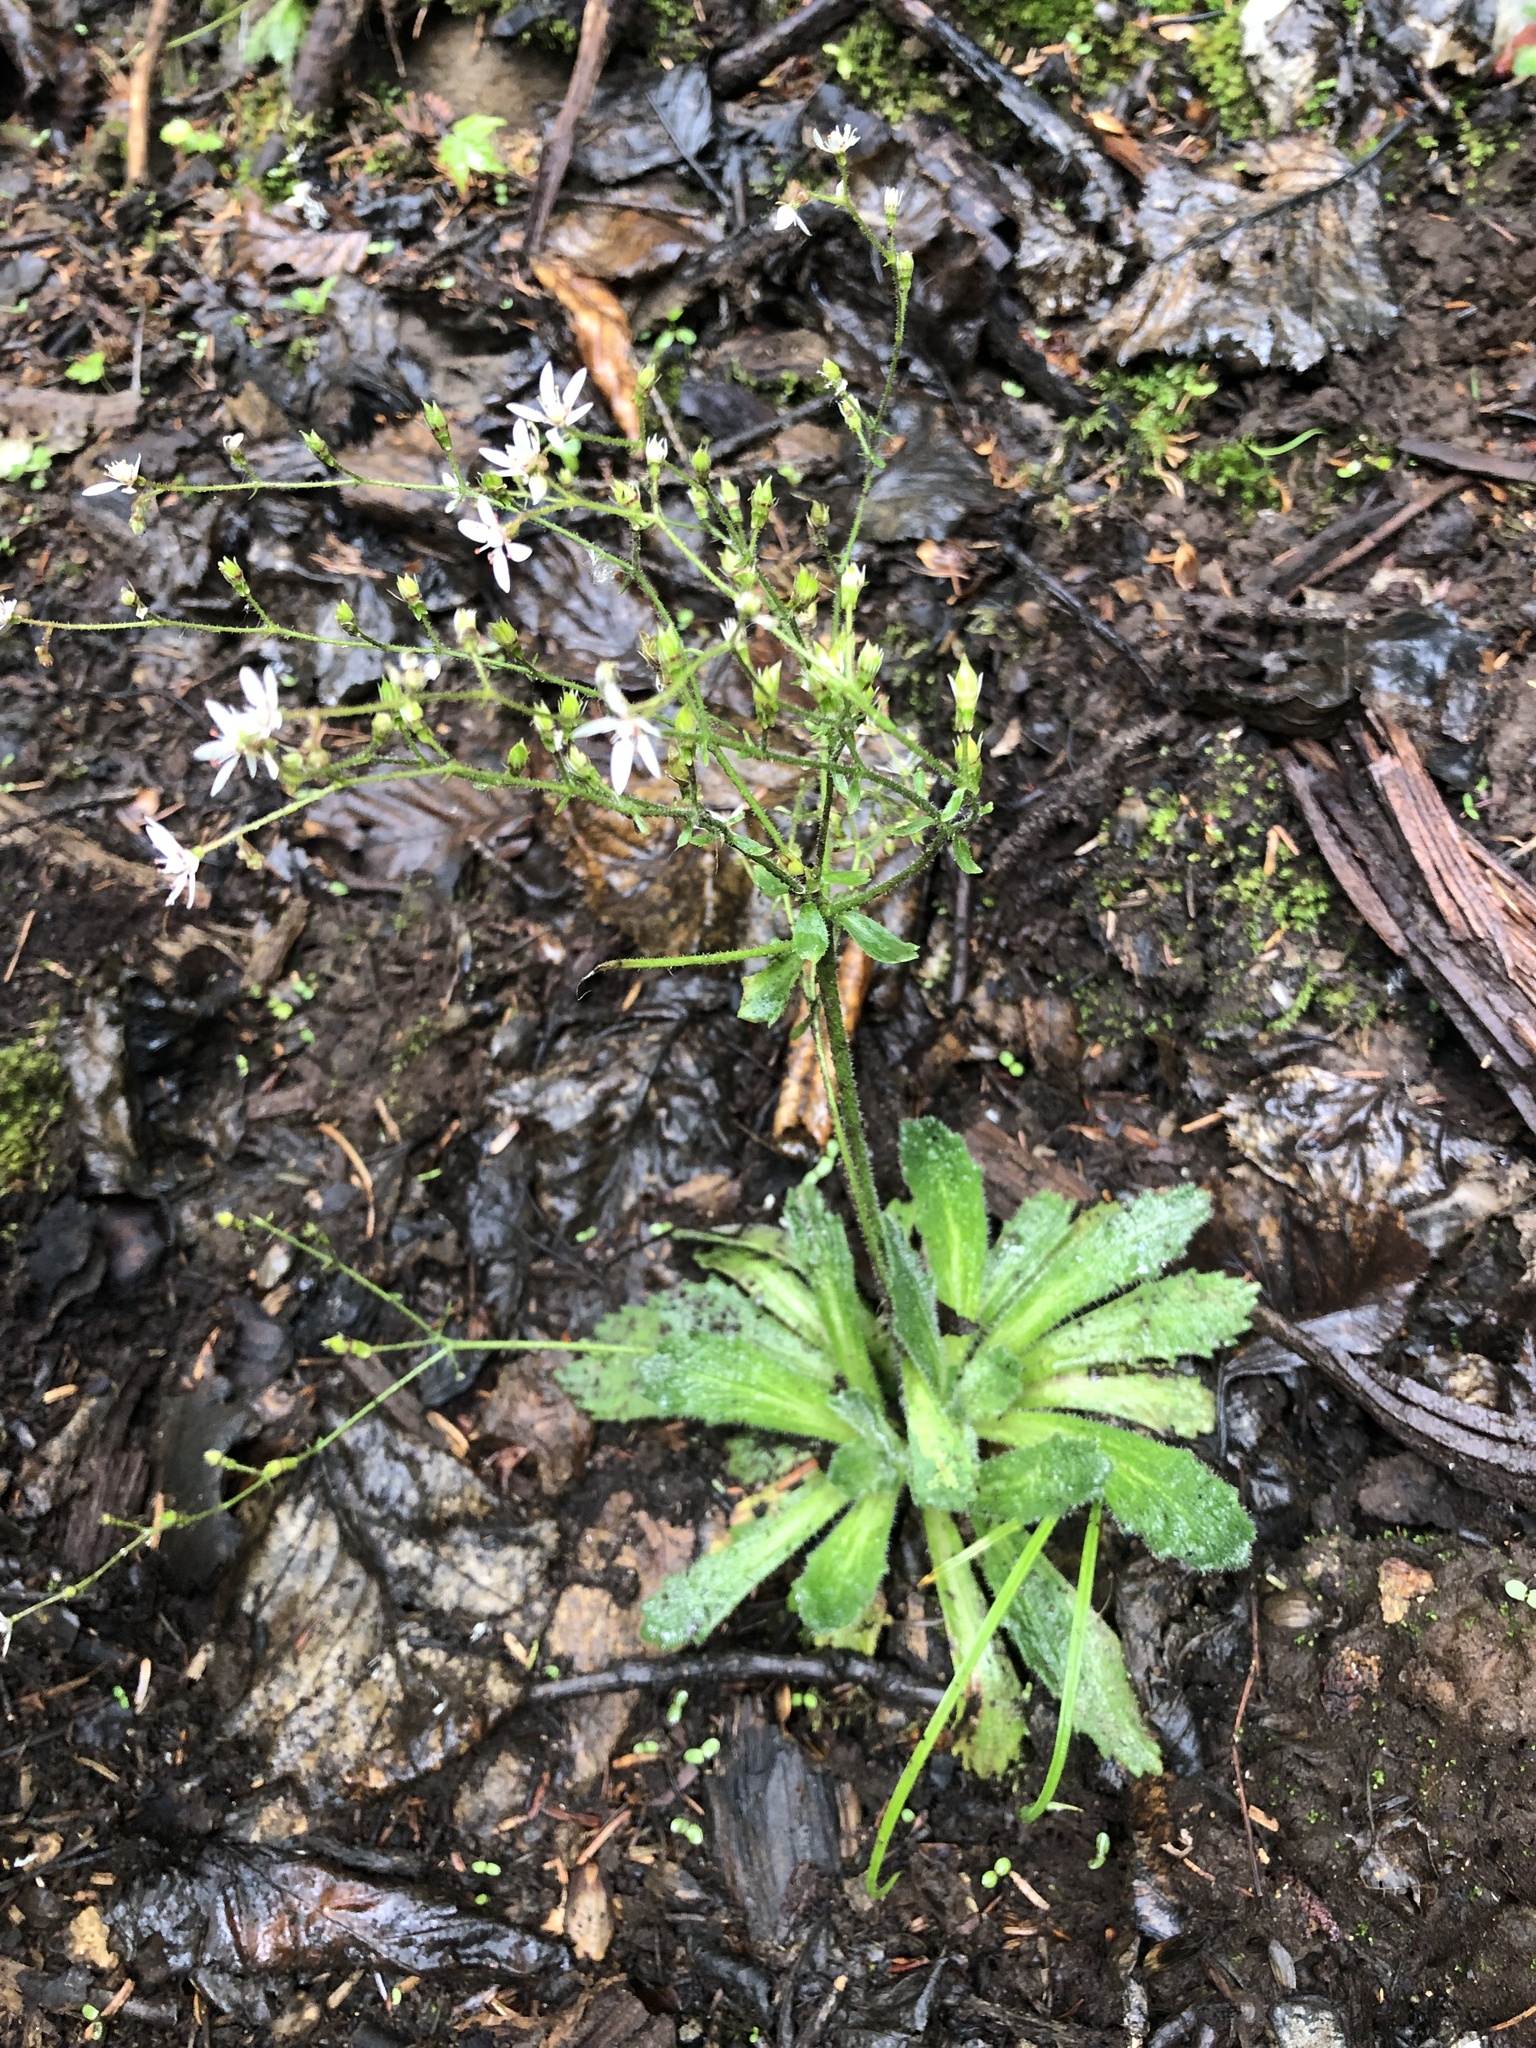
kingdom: Plantae
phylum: Tracheophyta
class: Magnoliopsida
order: Saxifragales
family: Saxifragaceae
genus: Micranthes
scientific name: Micranthes ferruginea
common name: Rusty saxifrage
